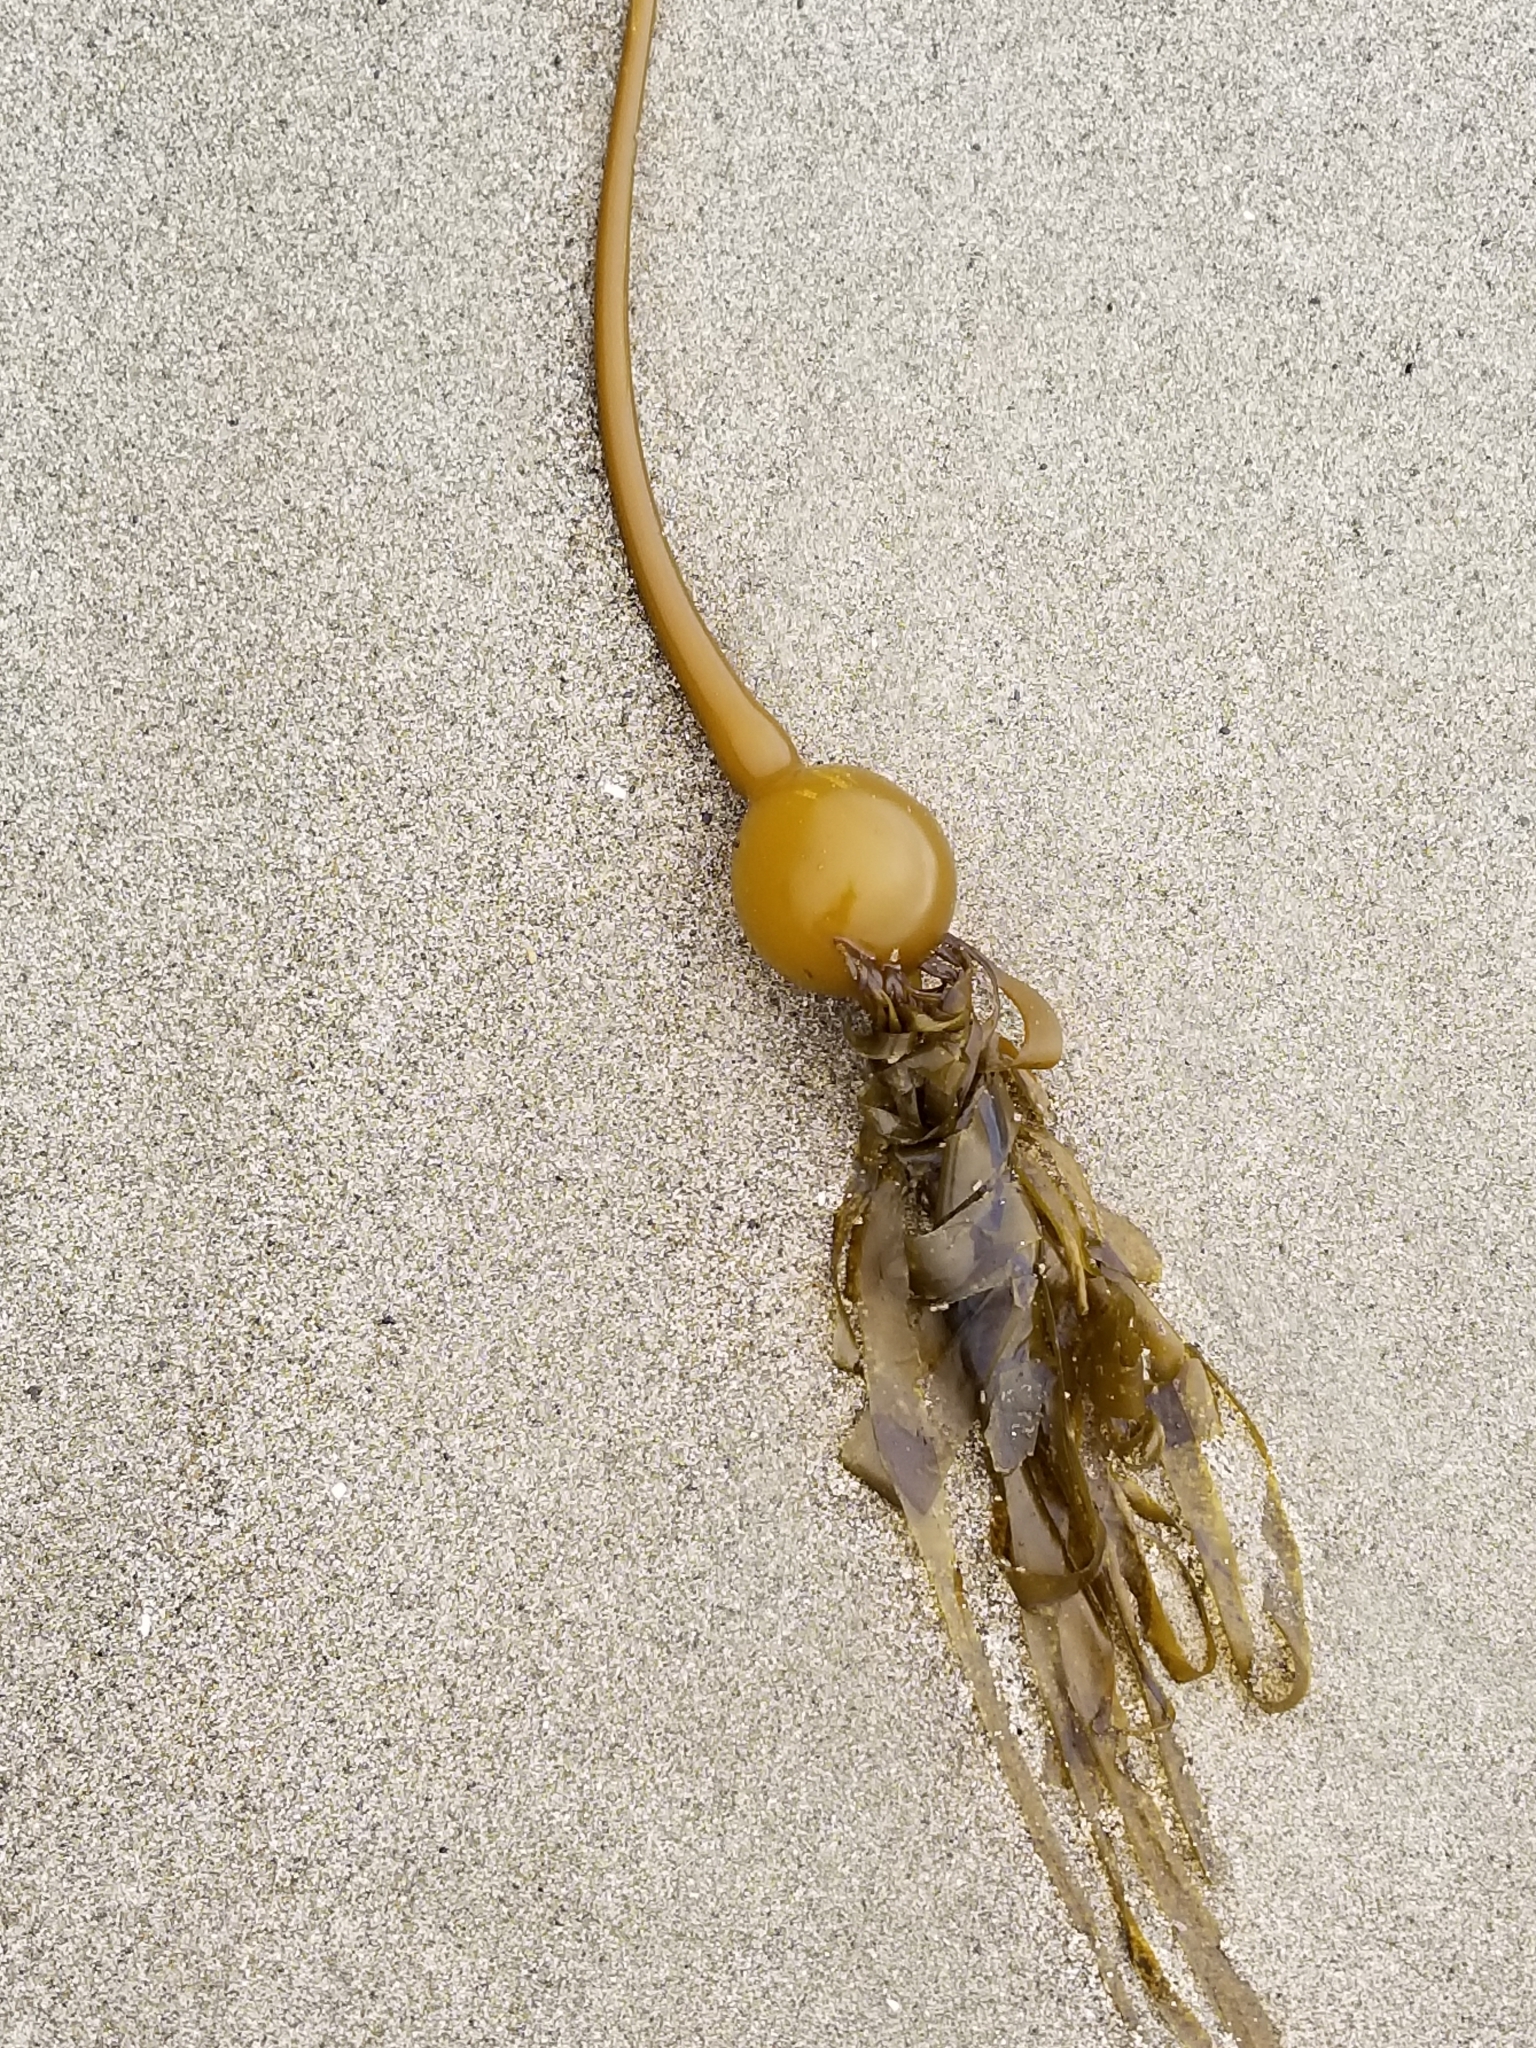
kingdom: Chromista
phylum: Ochrophyta
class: Phaeophyceae
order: Laminariales
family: Laminariaceae
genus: Nereocystis
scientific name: Nereocystis luetkeana
